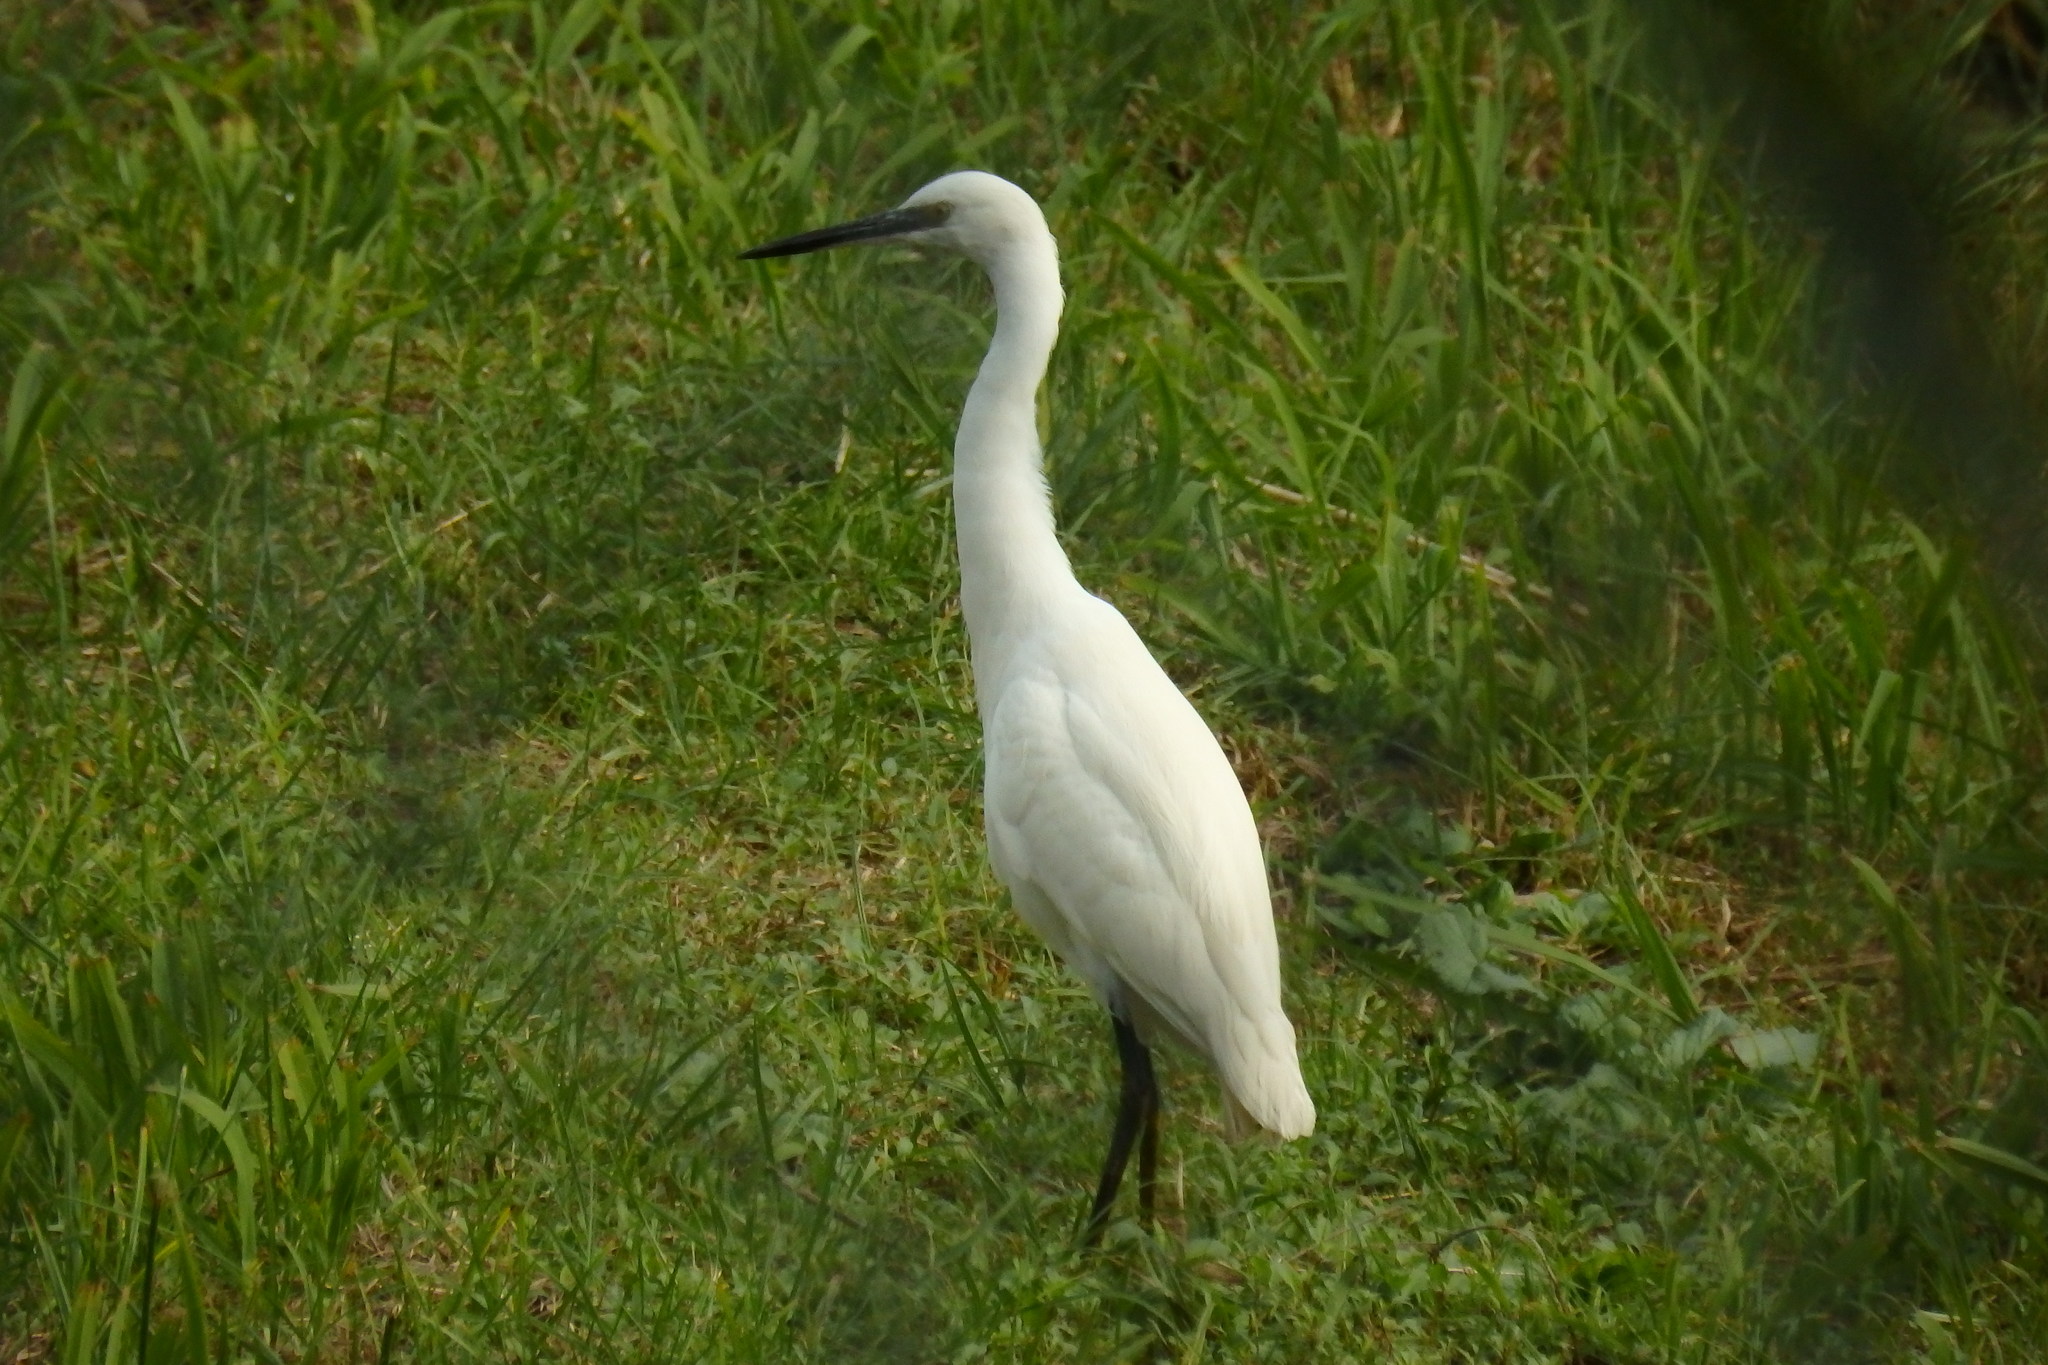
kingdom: Animalia
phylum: Chordata
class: Aves
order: Pelecaniformes
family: Ardeidae
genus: Egretta
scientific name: Egretta garzetta
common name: Little egret
